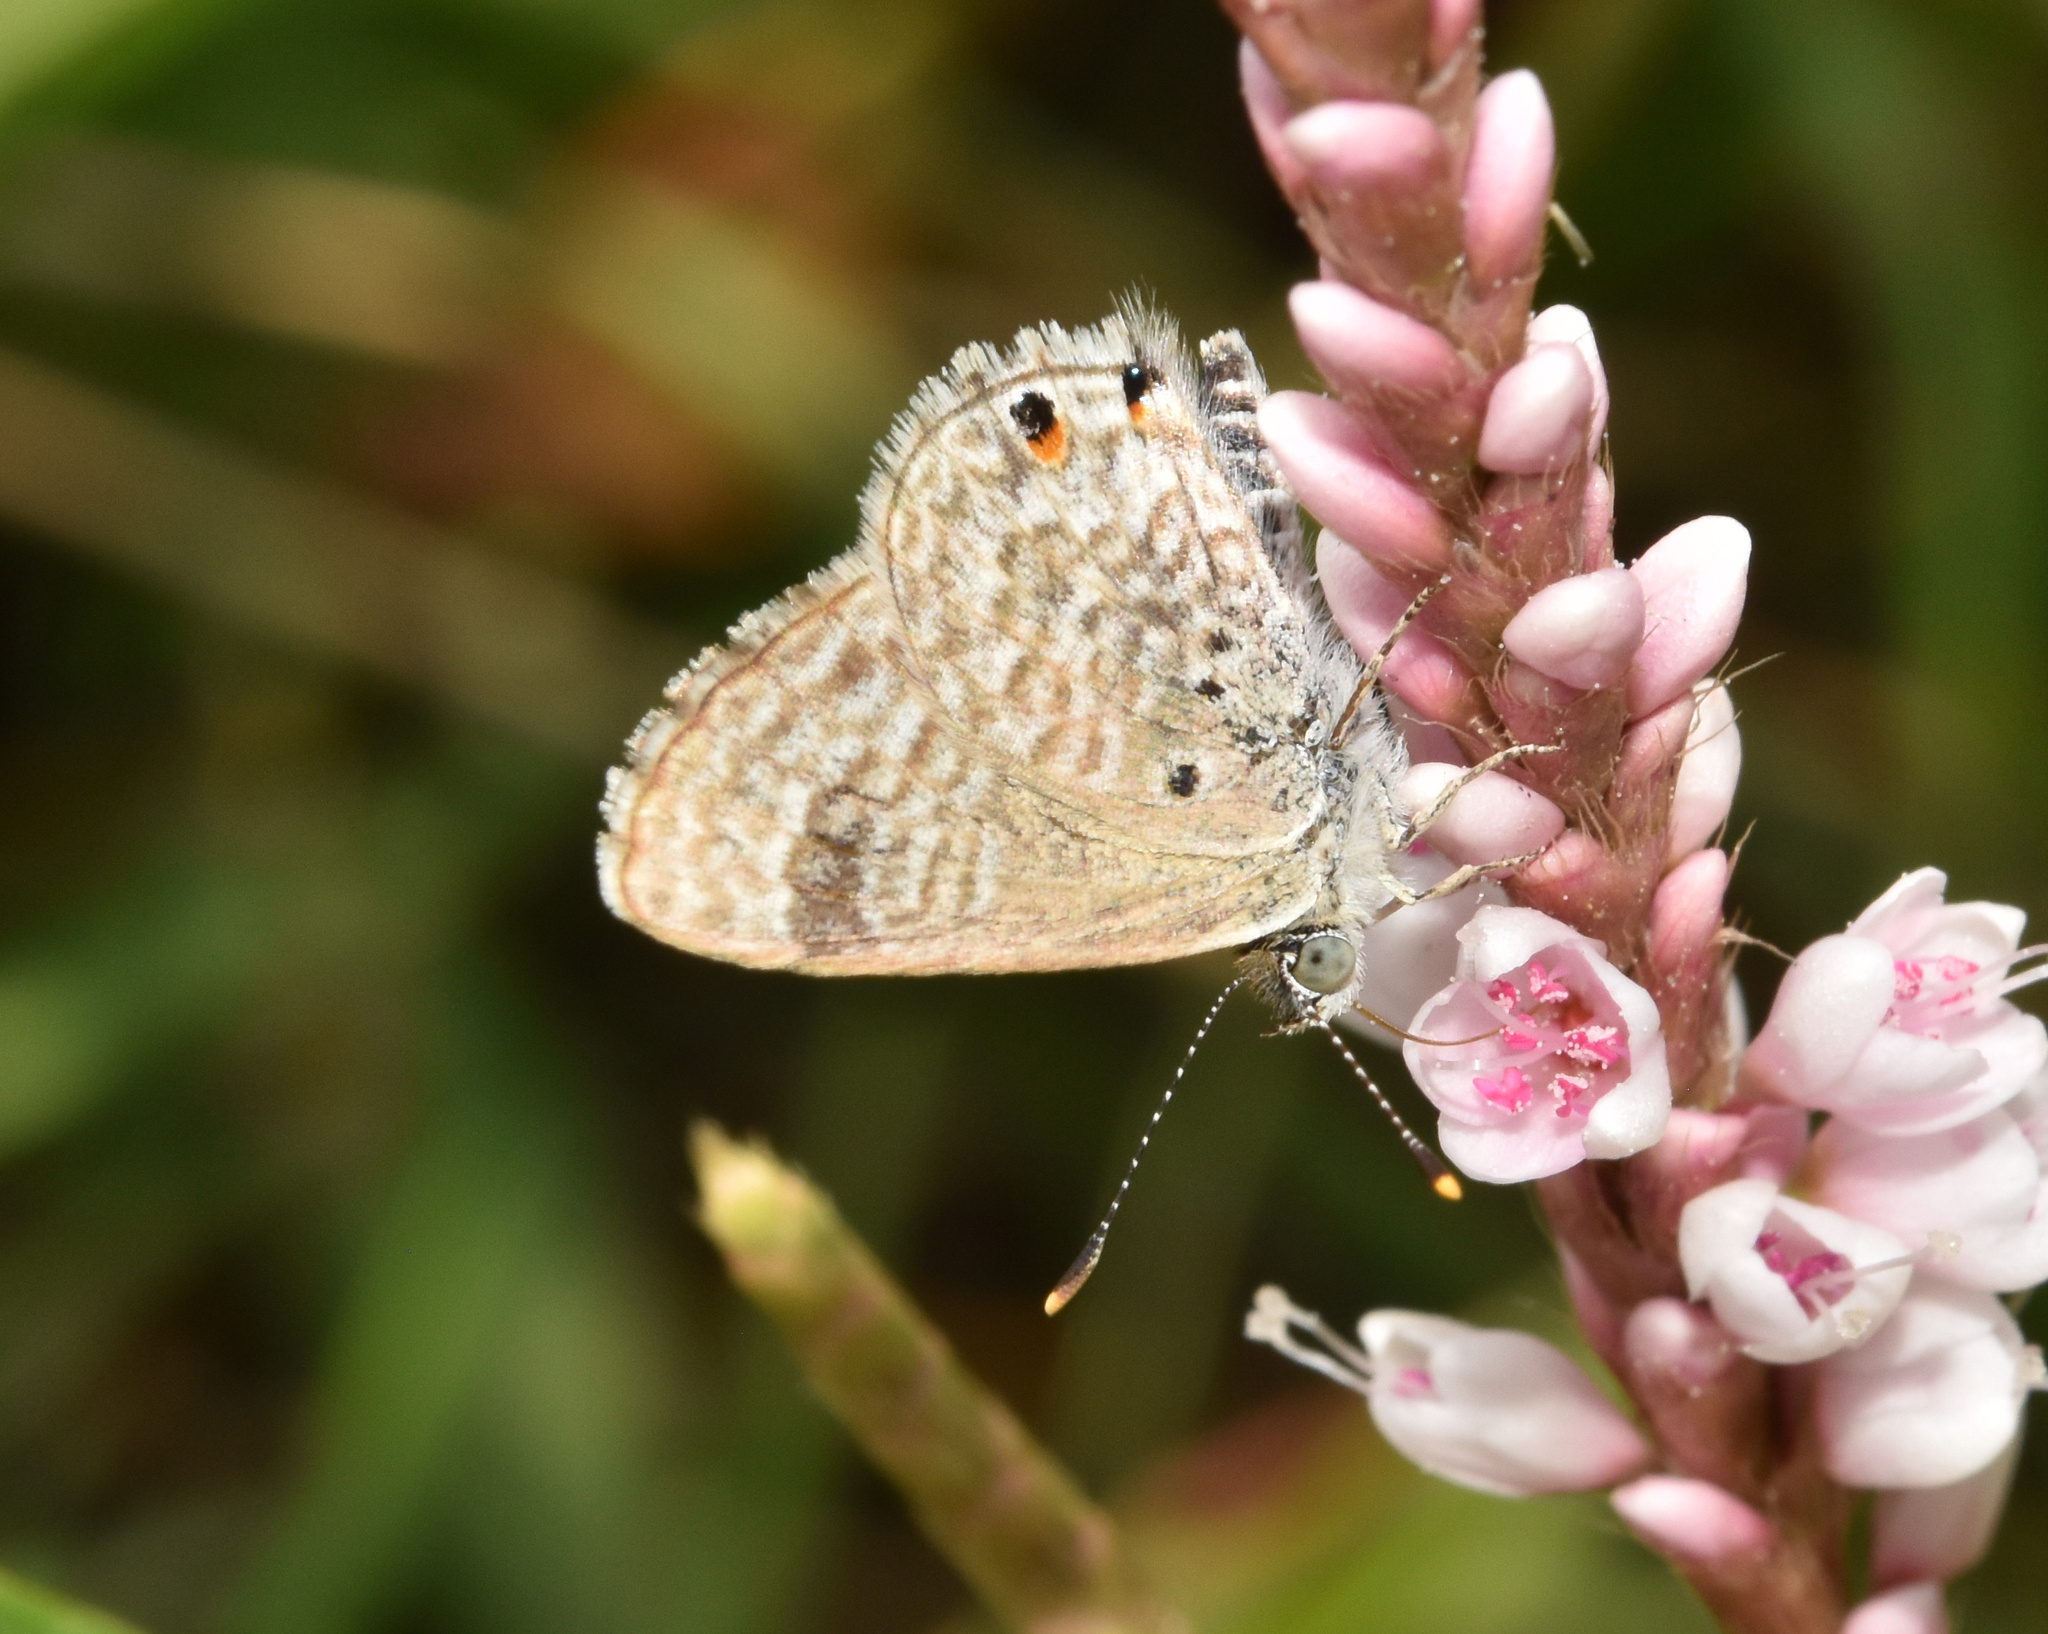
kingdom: Animalia
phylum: Arthropoda
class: Insecta
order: Lepidoptera
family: Lycaenidae
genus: Anthene
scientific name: Anthene dulcis
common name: Mashuna hairtail
